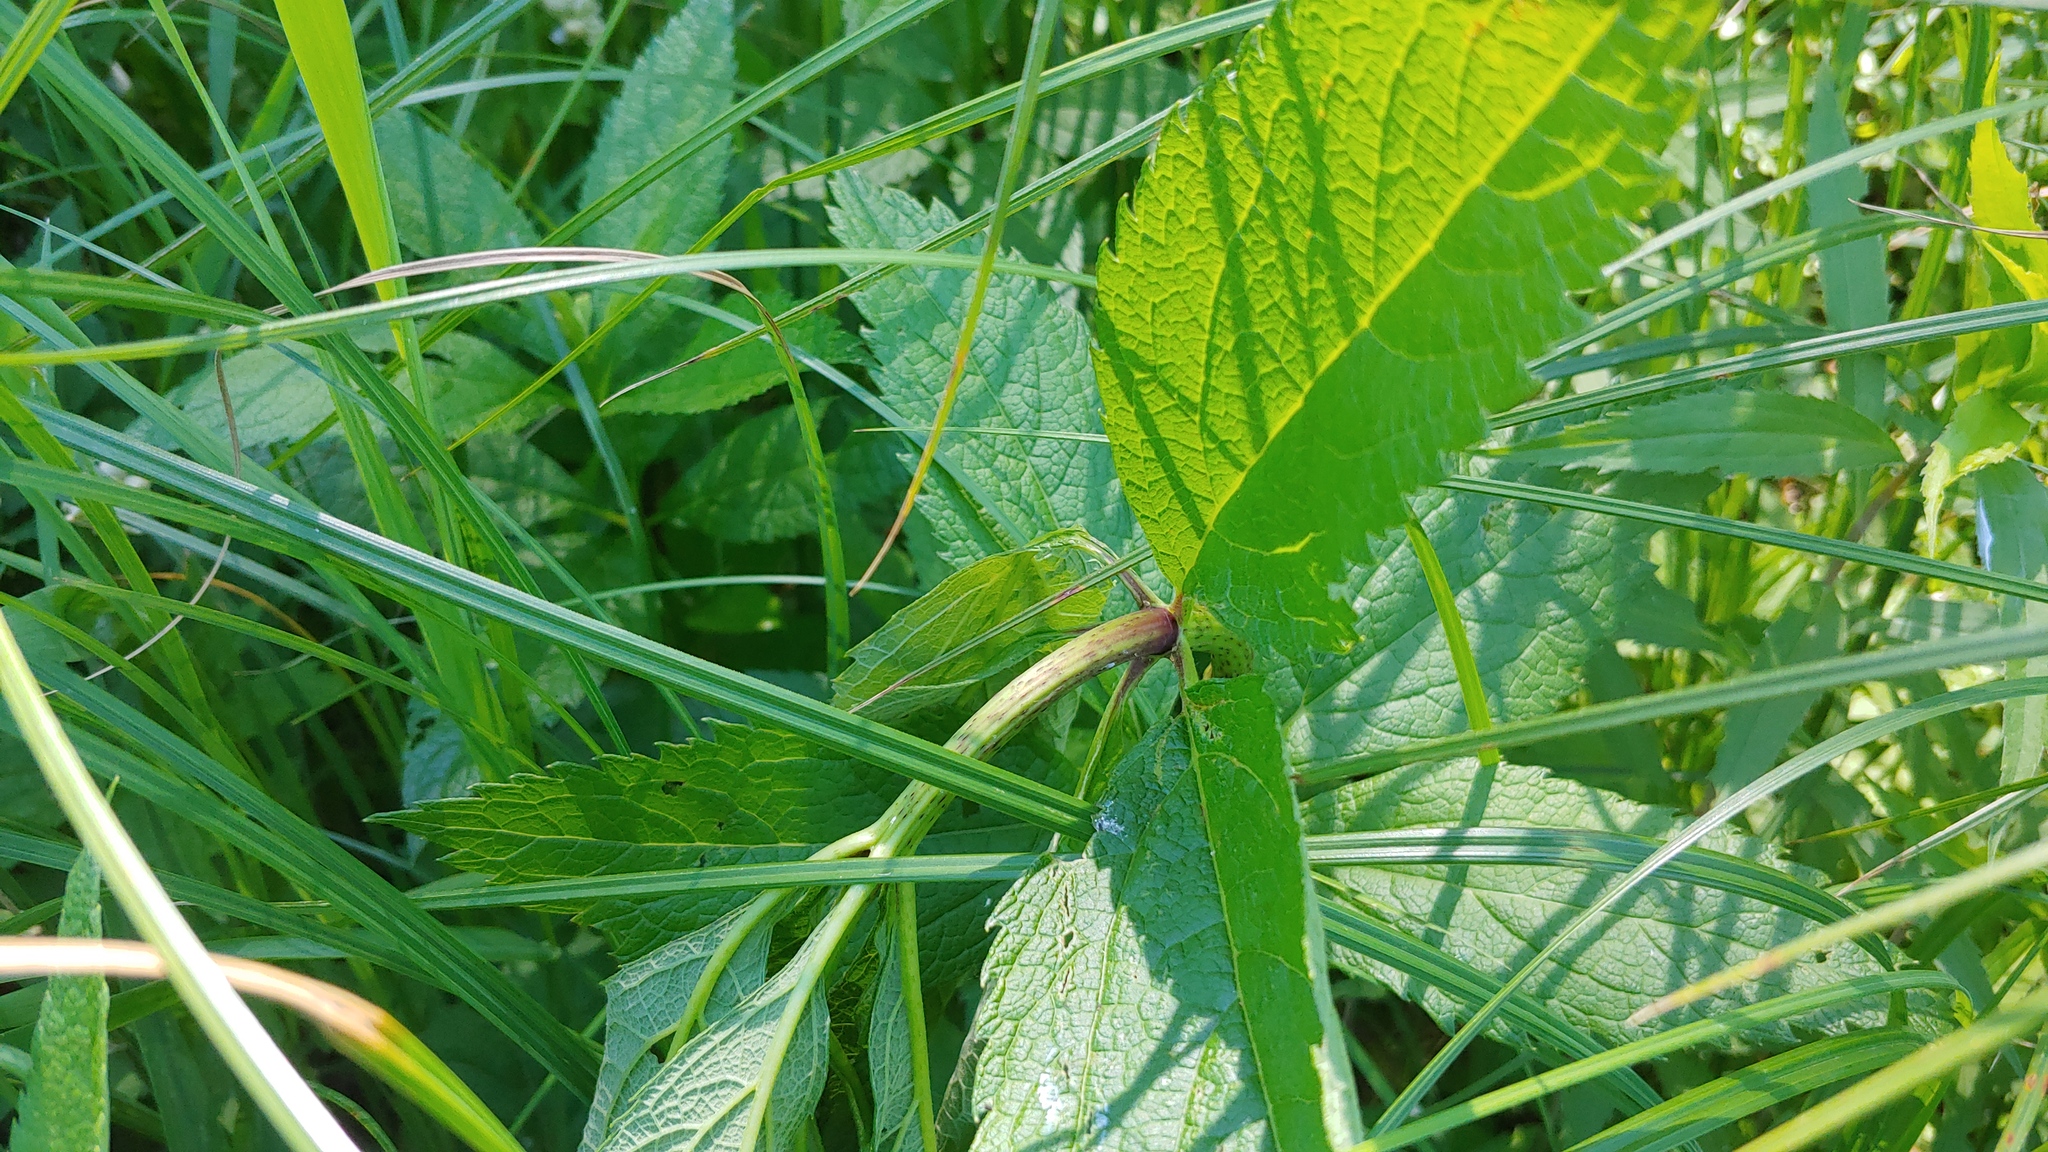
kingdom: Plantae
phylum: Tracheophyta
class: Magnoliopsida
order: Asterales
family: Asteraceae
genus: Eutrochium
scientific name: Eutrochium maculatum
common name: Spotted joe pye weed
